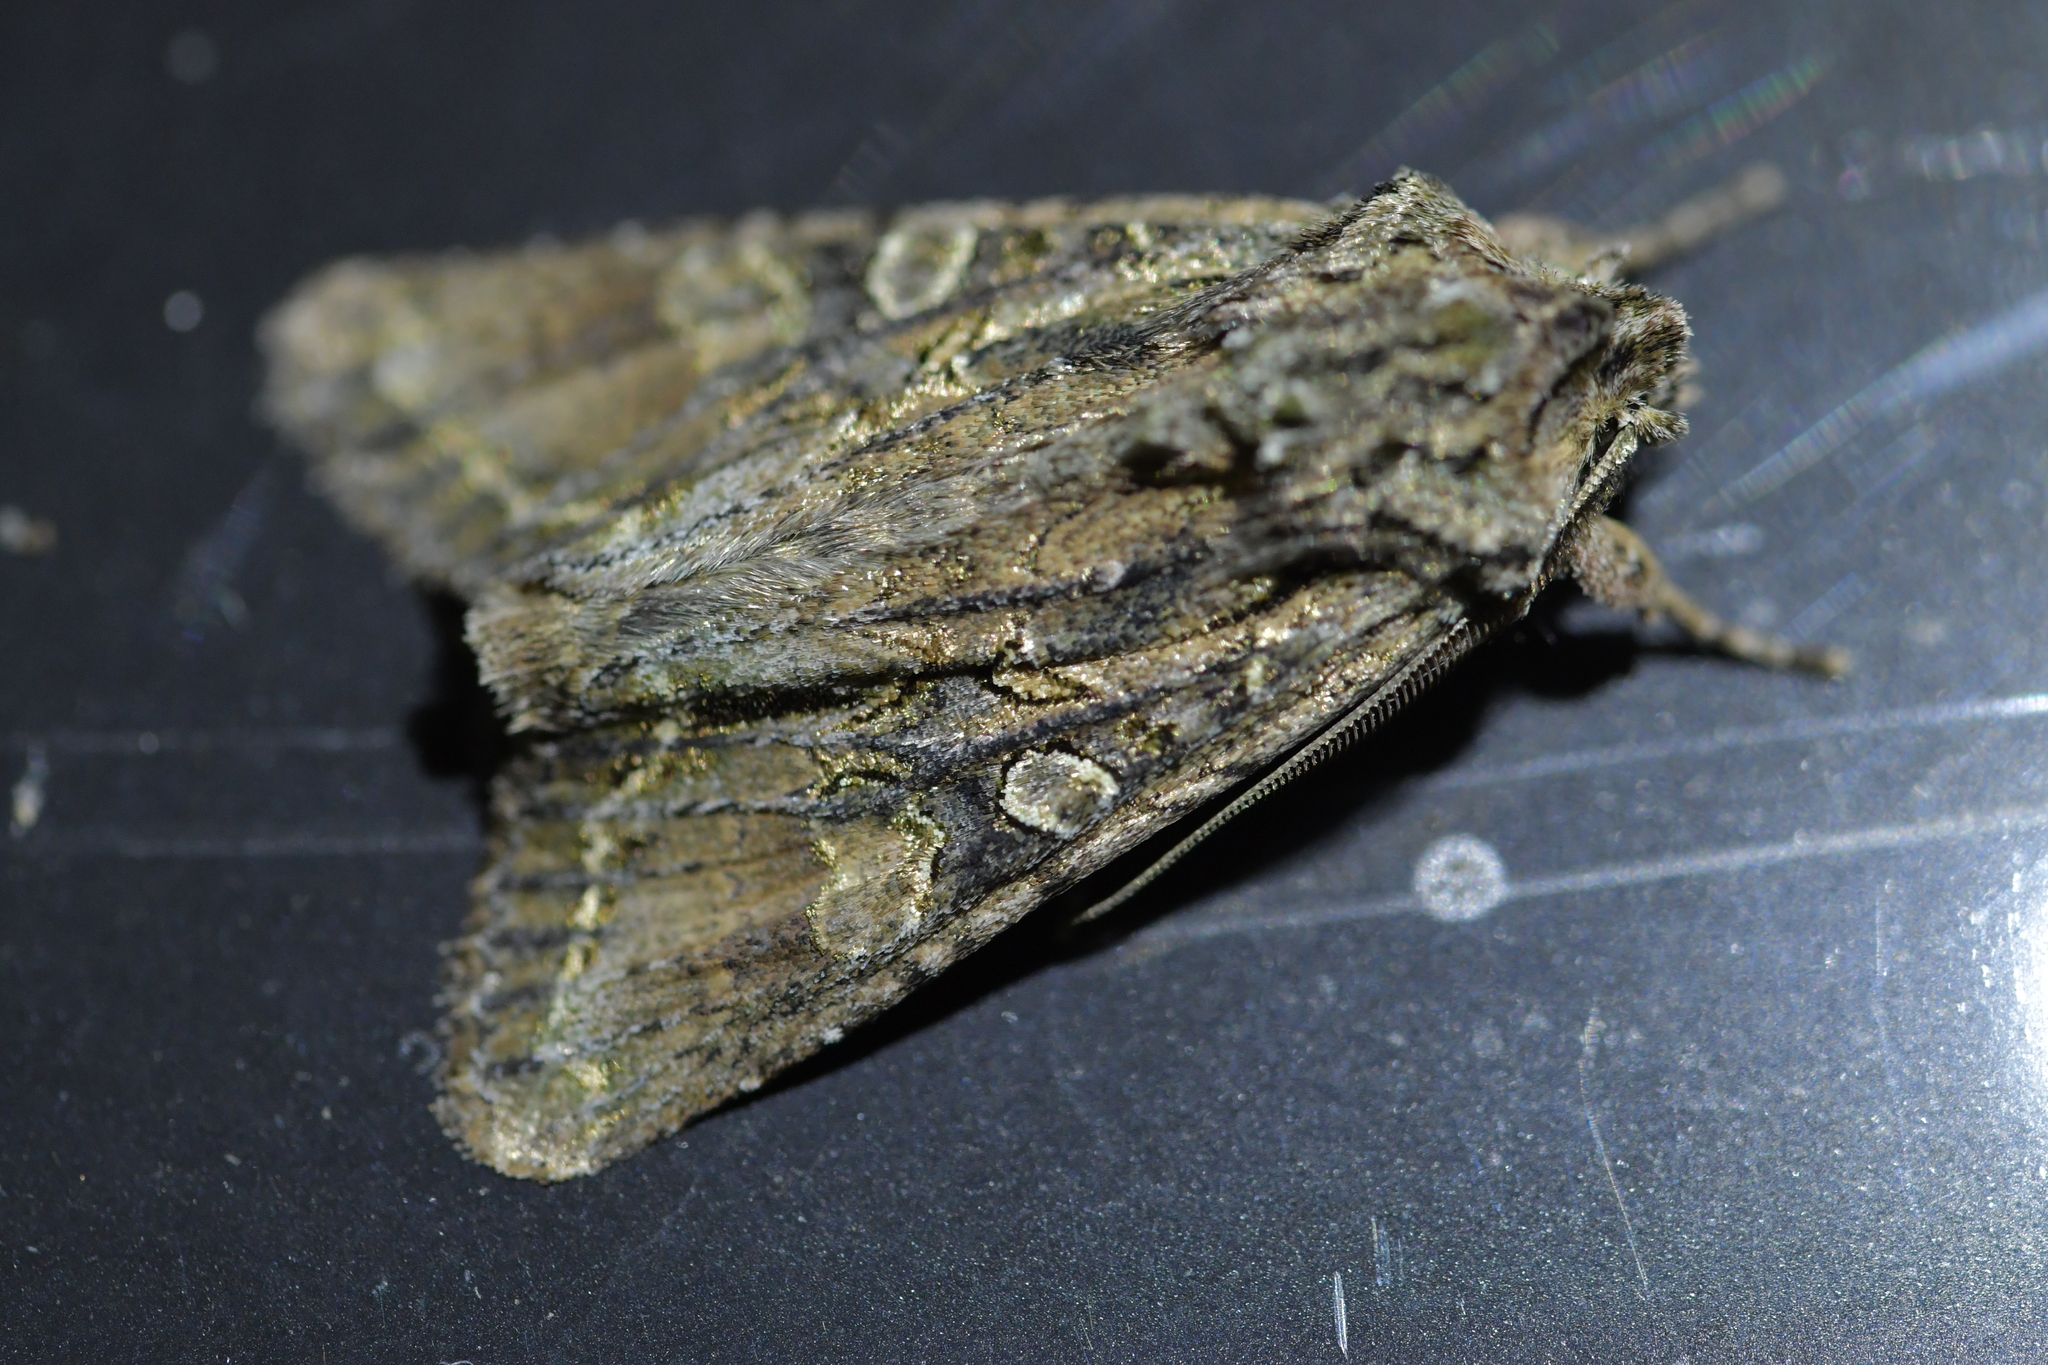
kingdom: Animalia
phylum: Arthropoda
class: Insecta
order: Lepidoptera
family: Noctuidae
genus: Ichneutica
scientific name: Ichneutica mutans
